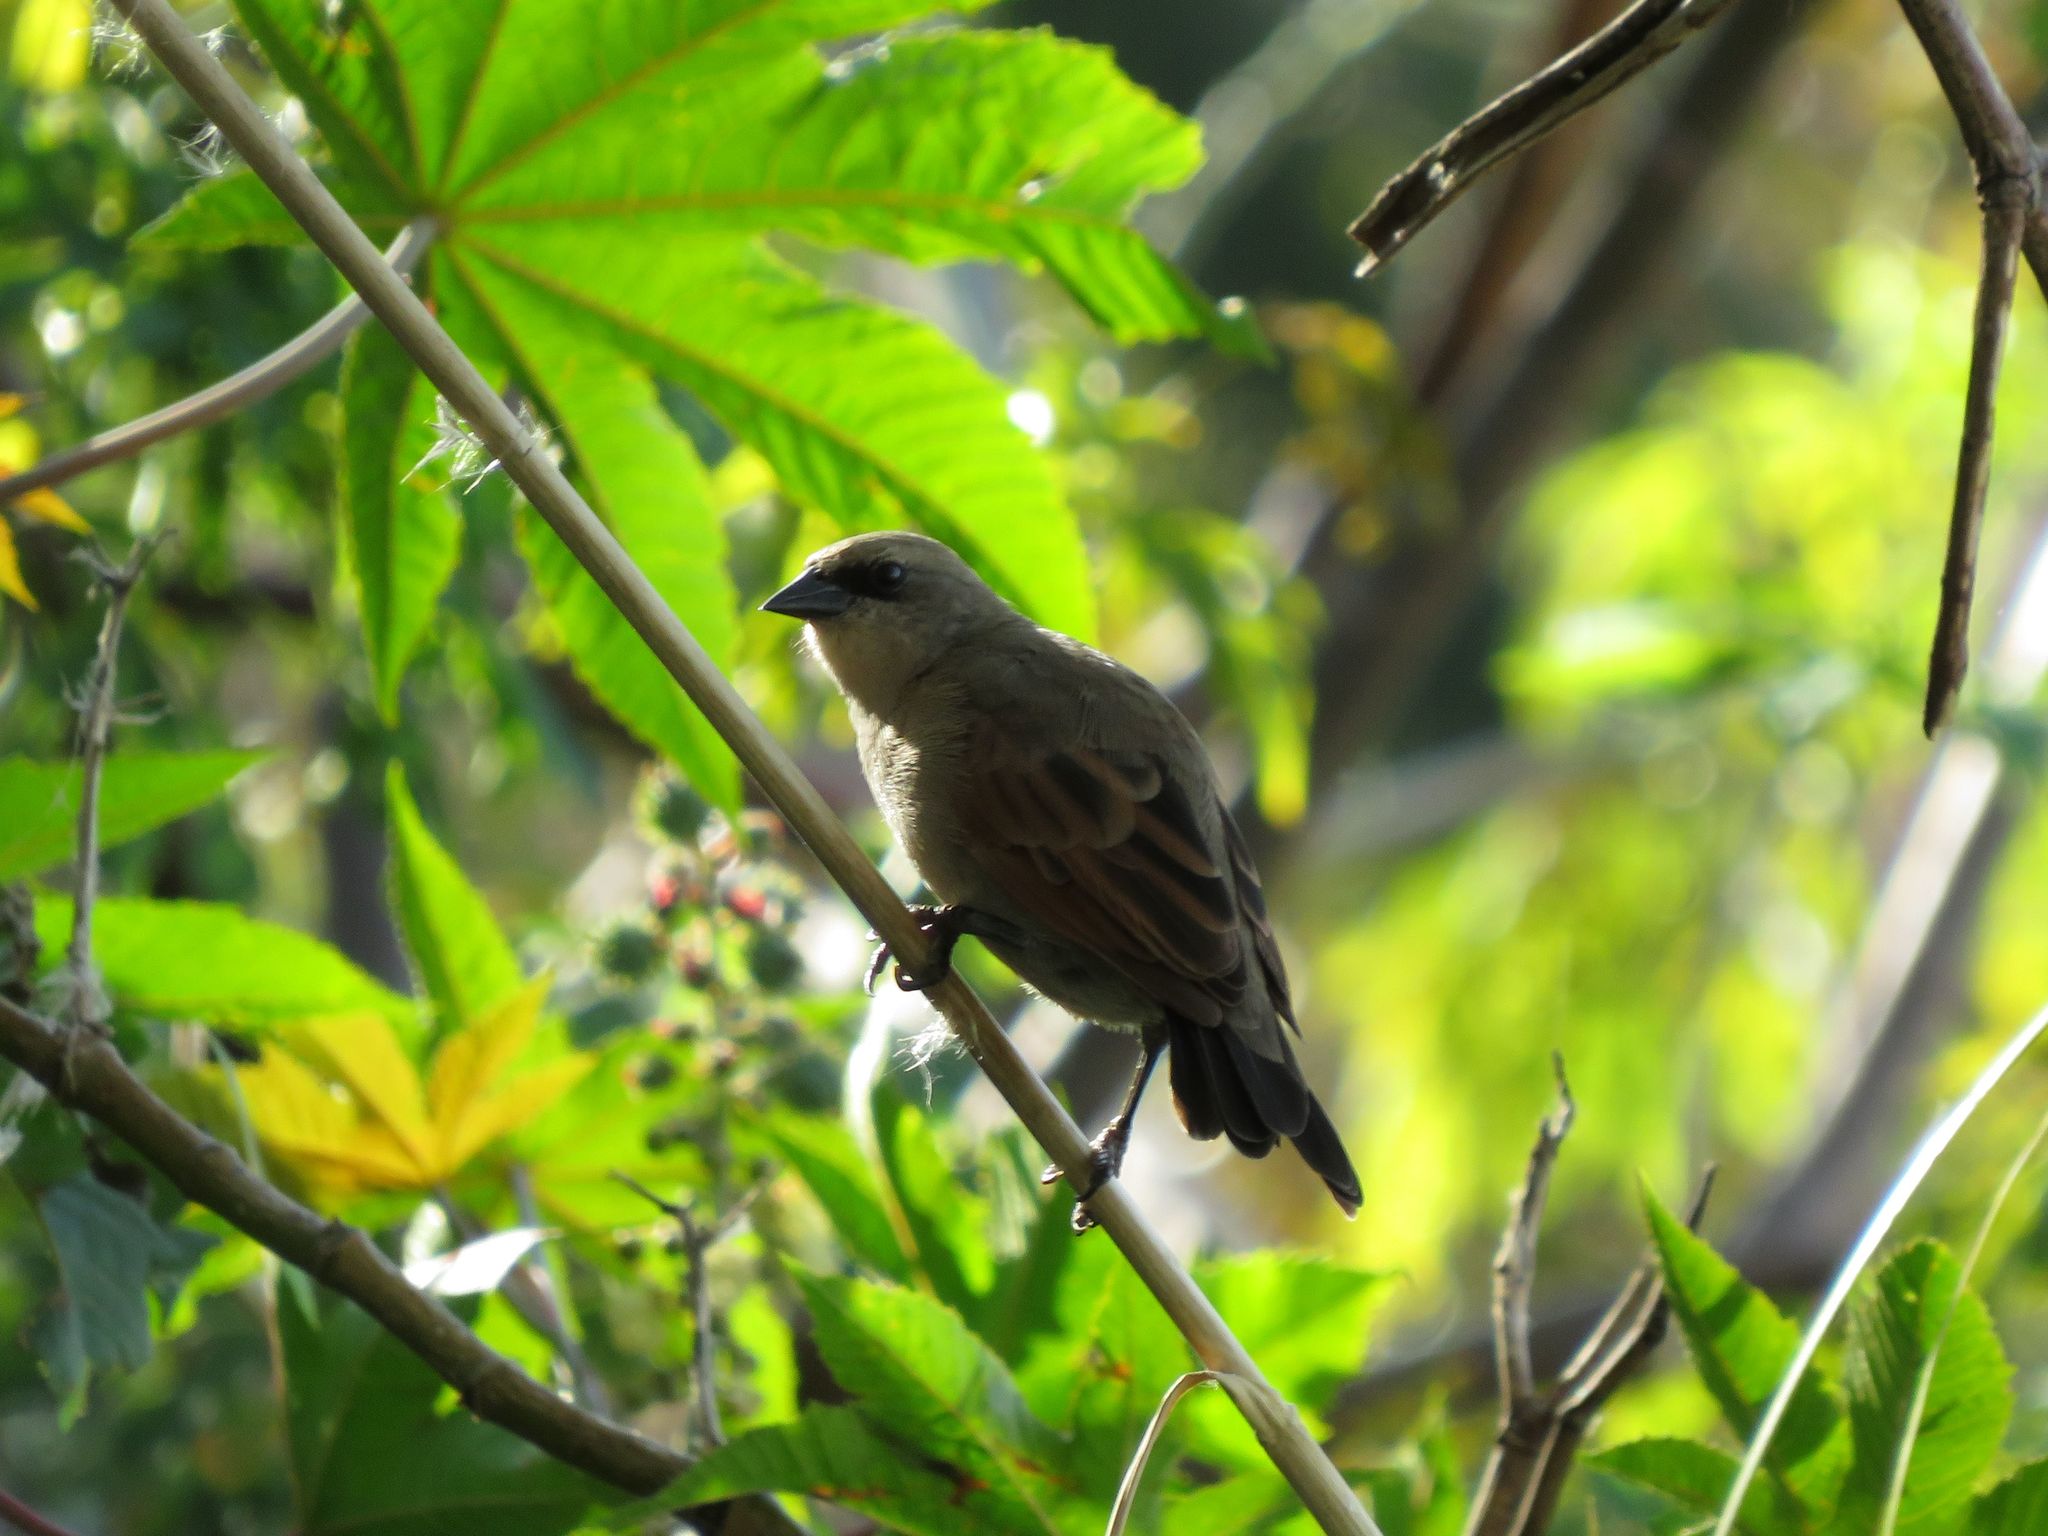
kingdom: Animalia
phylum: Chordata
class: Aves
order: Passeriformes
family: Icteridae
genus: Agelaioides
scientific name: Agelaioides badius
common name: Baywing
